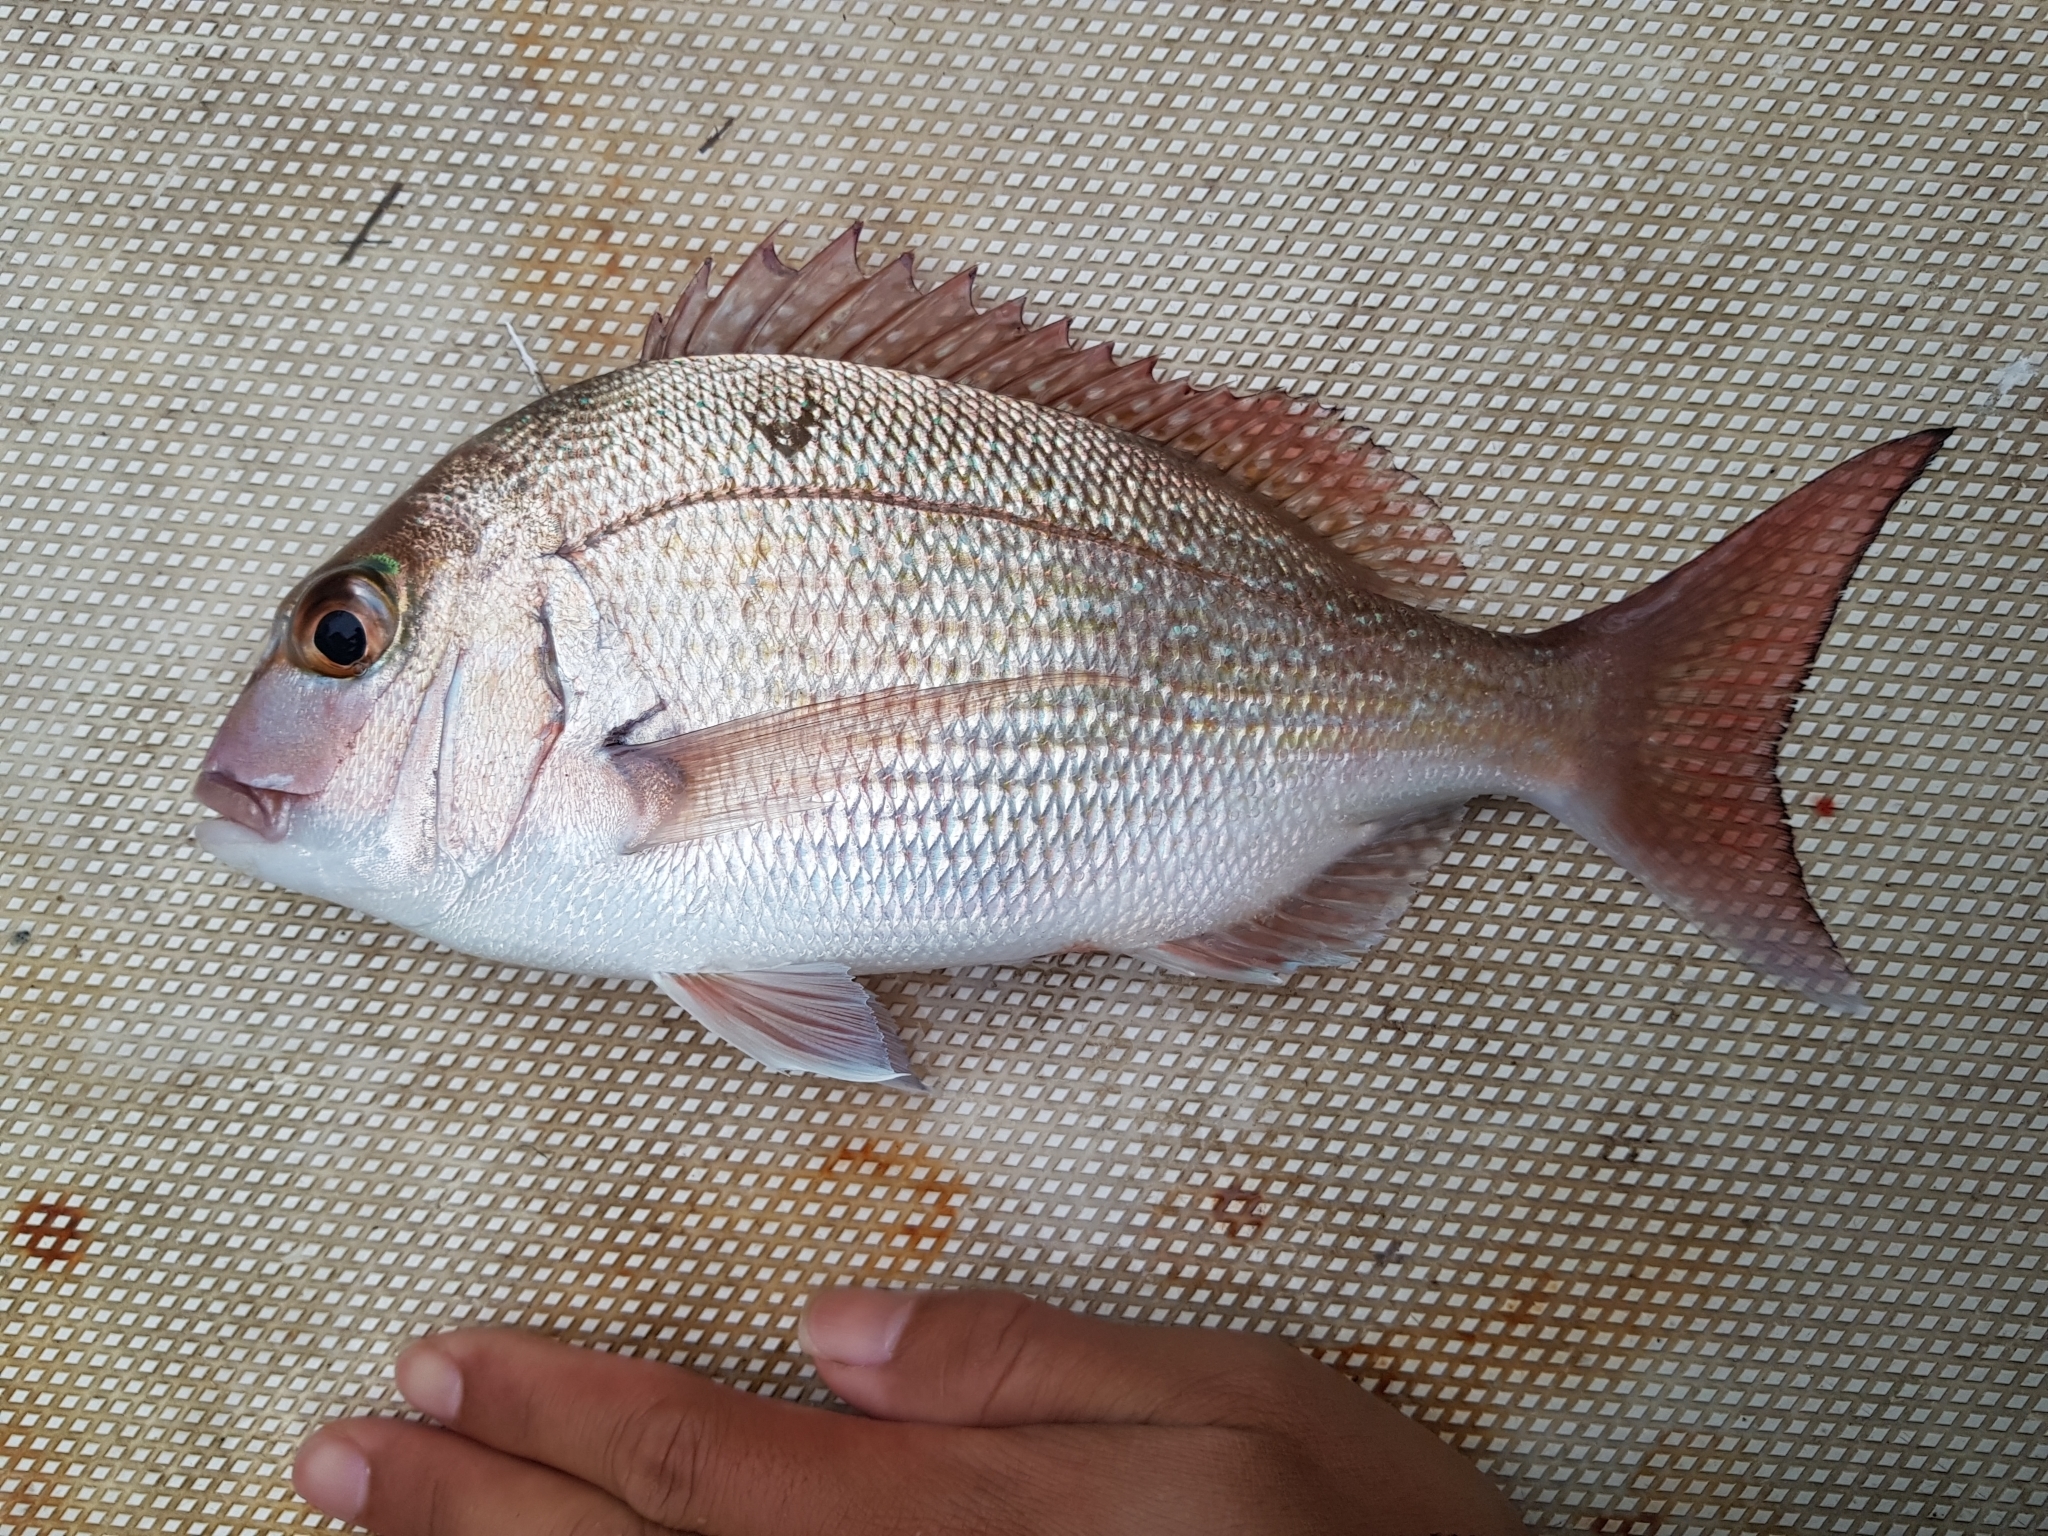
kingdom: Animalia
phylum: Chordata
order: Perciformes
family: Sparidae
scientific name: Sparidae
